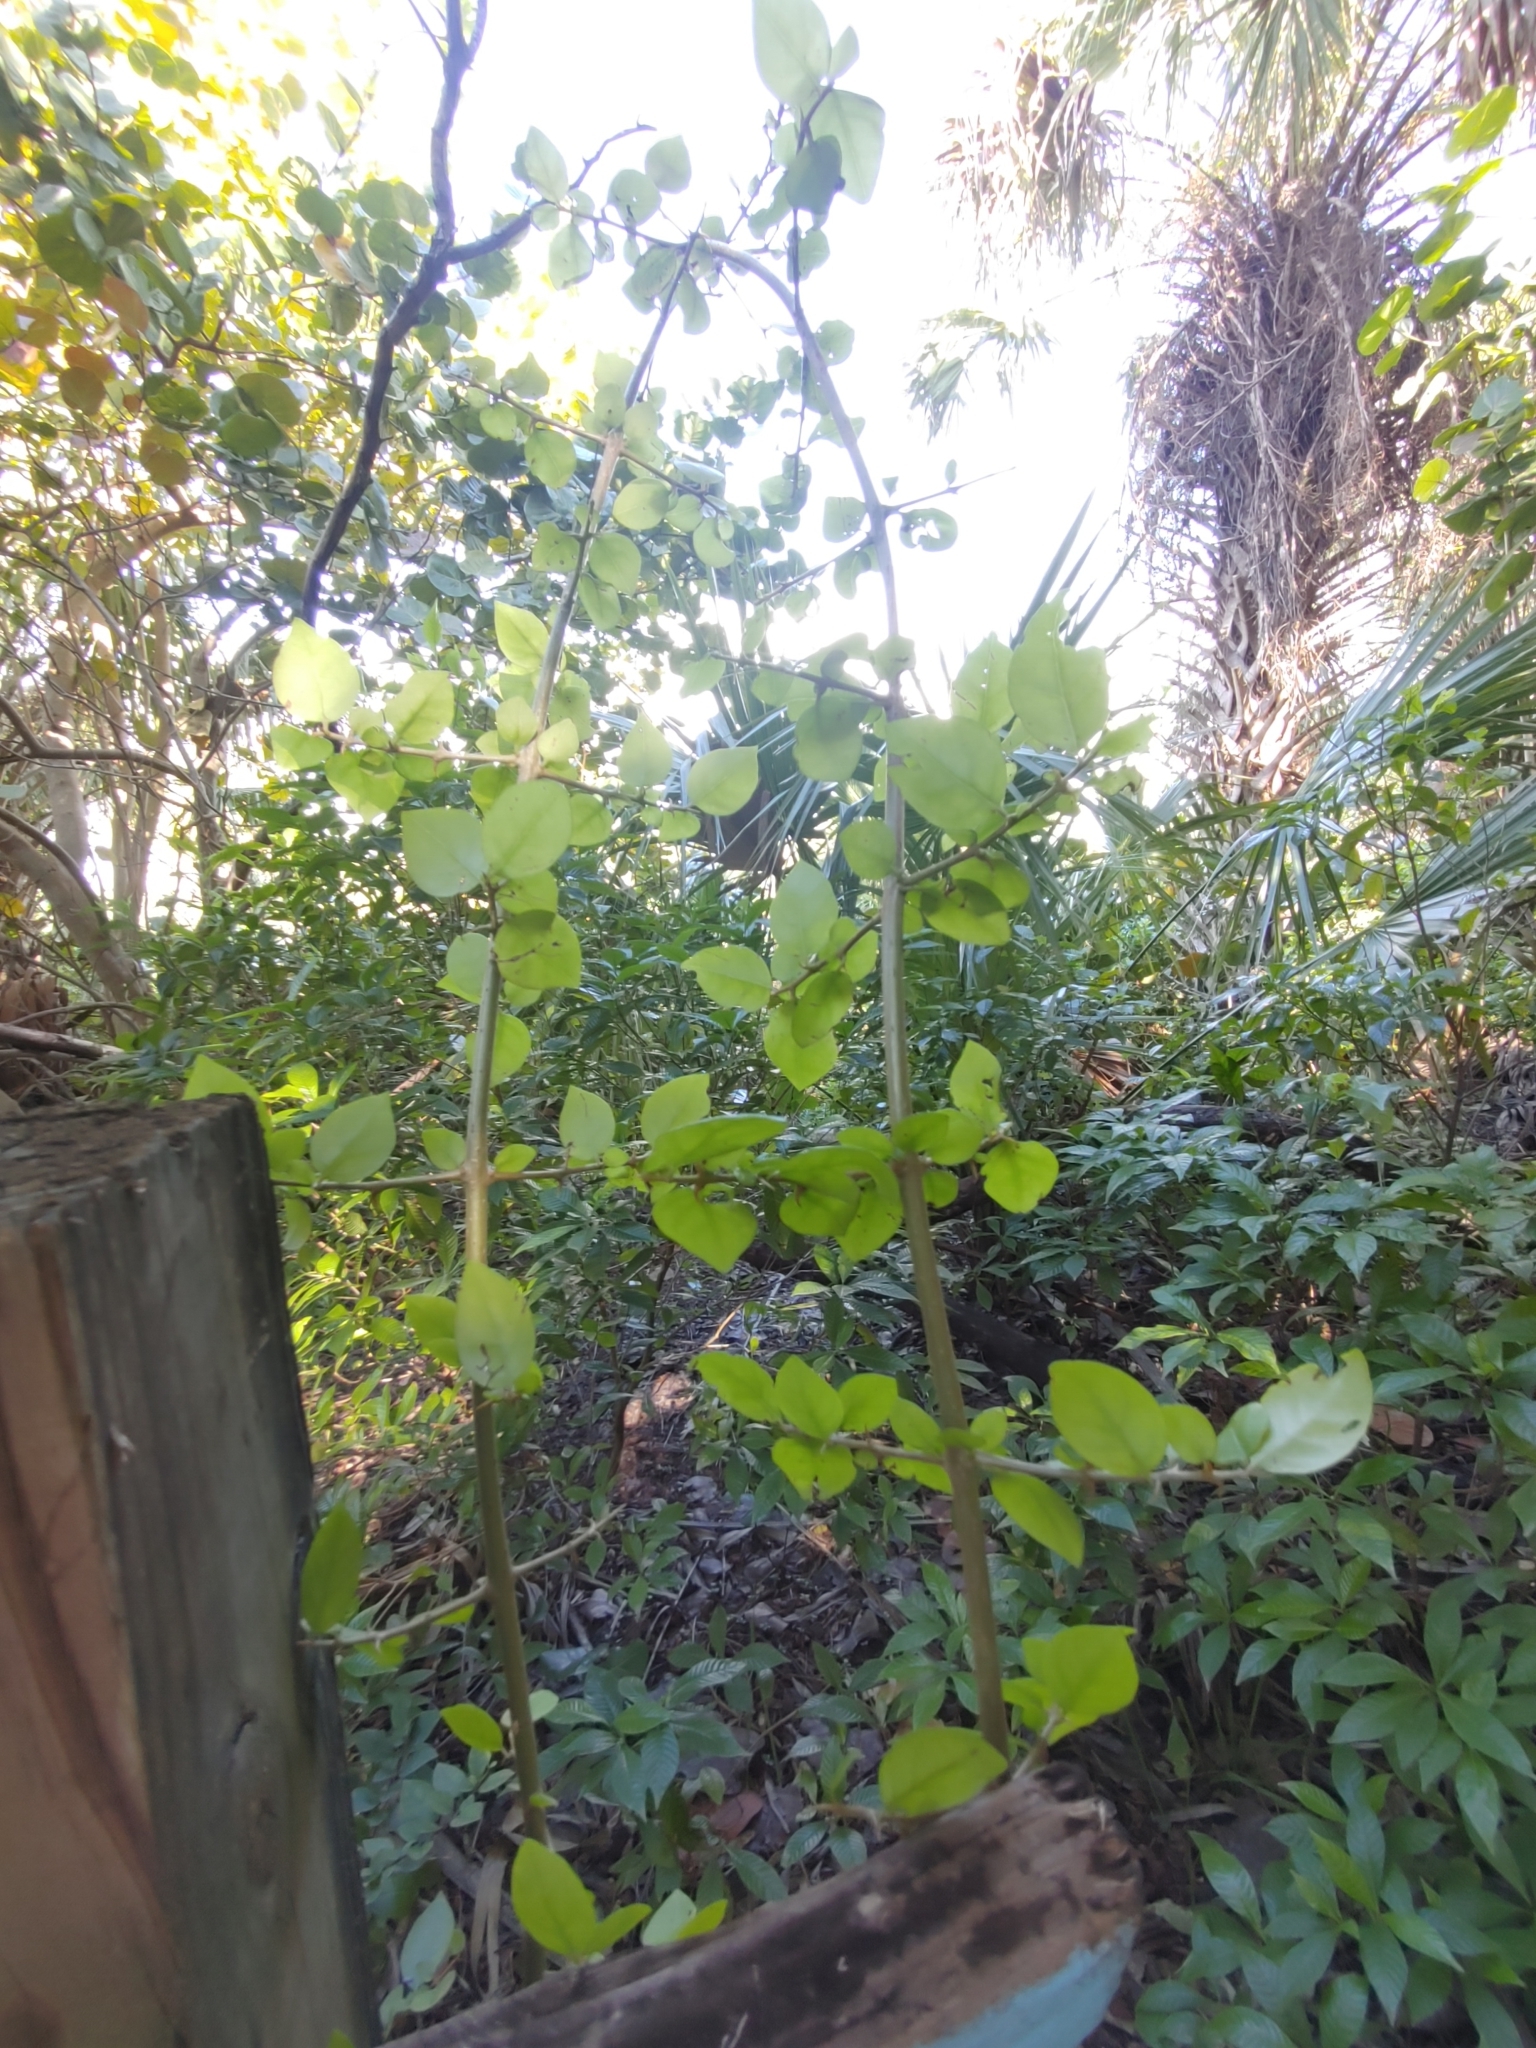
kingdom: Plantae
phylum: Tracheophyta
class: Magnoliopsida
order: Caryophyllales
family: Nyctaginaceae
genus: Pisonia
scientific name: Pisonia aculeata
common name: Cockspur vine
